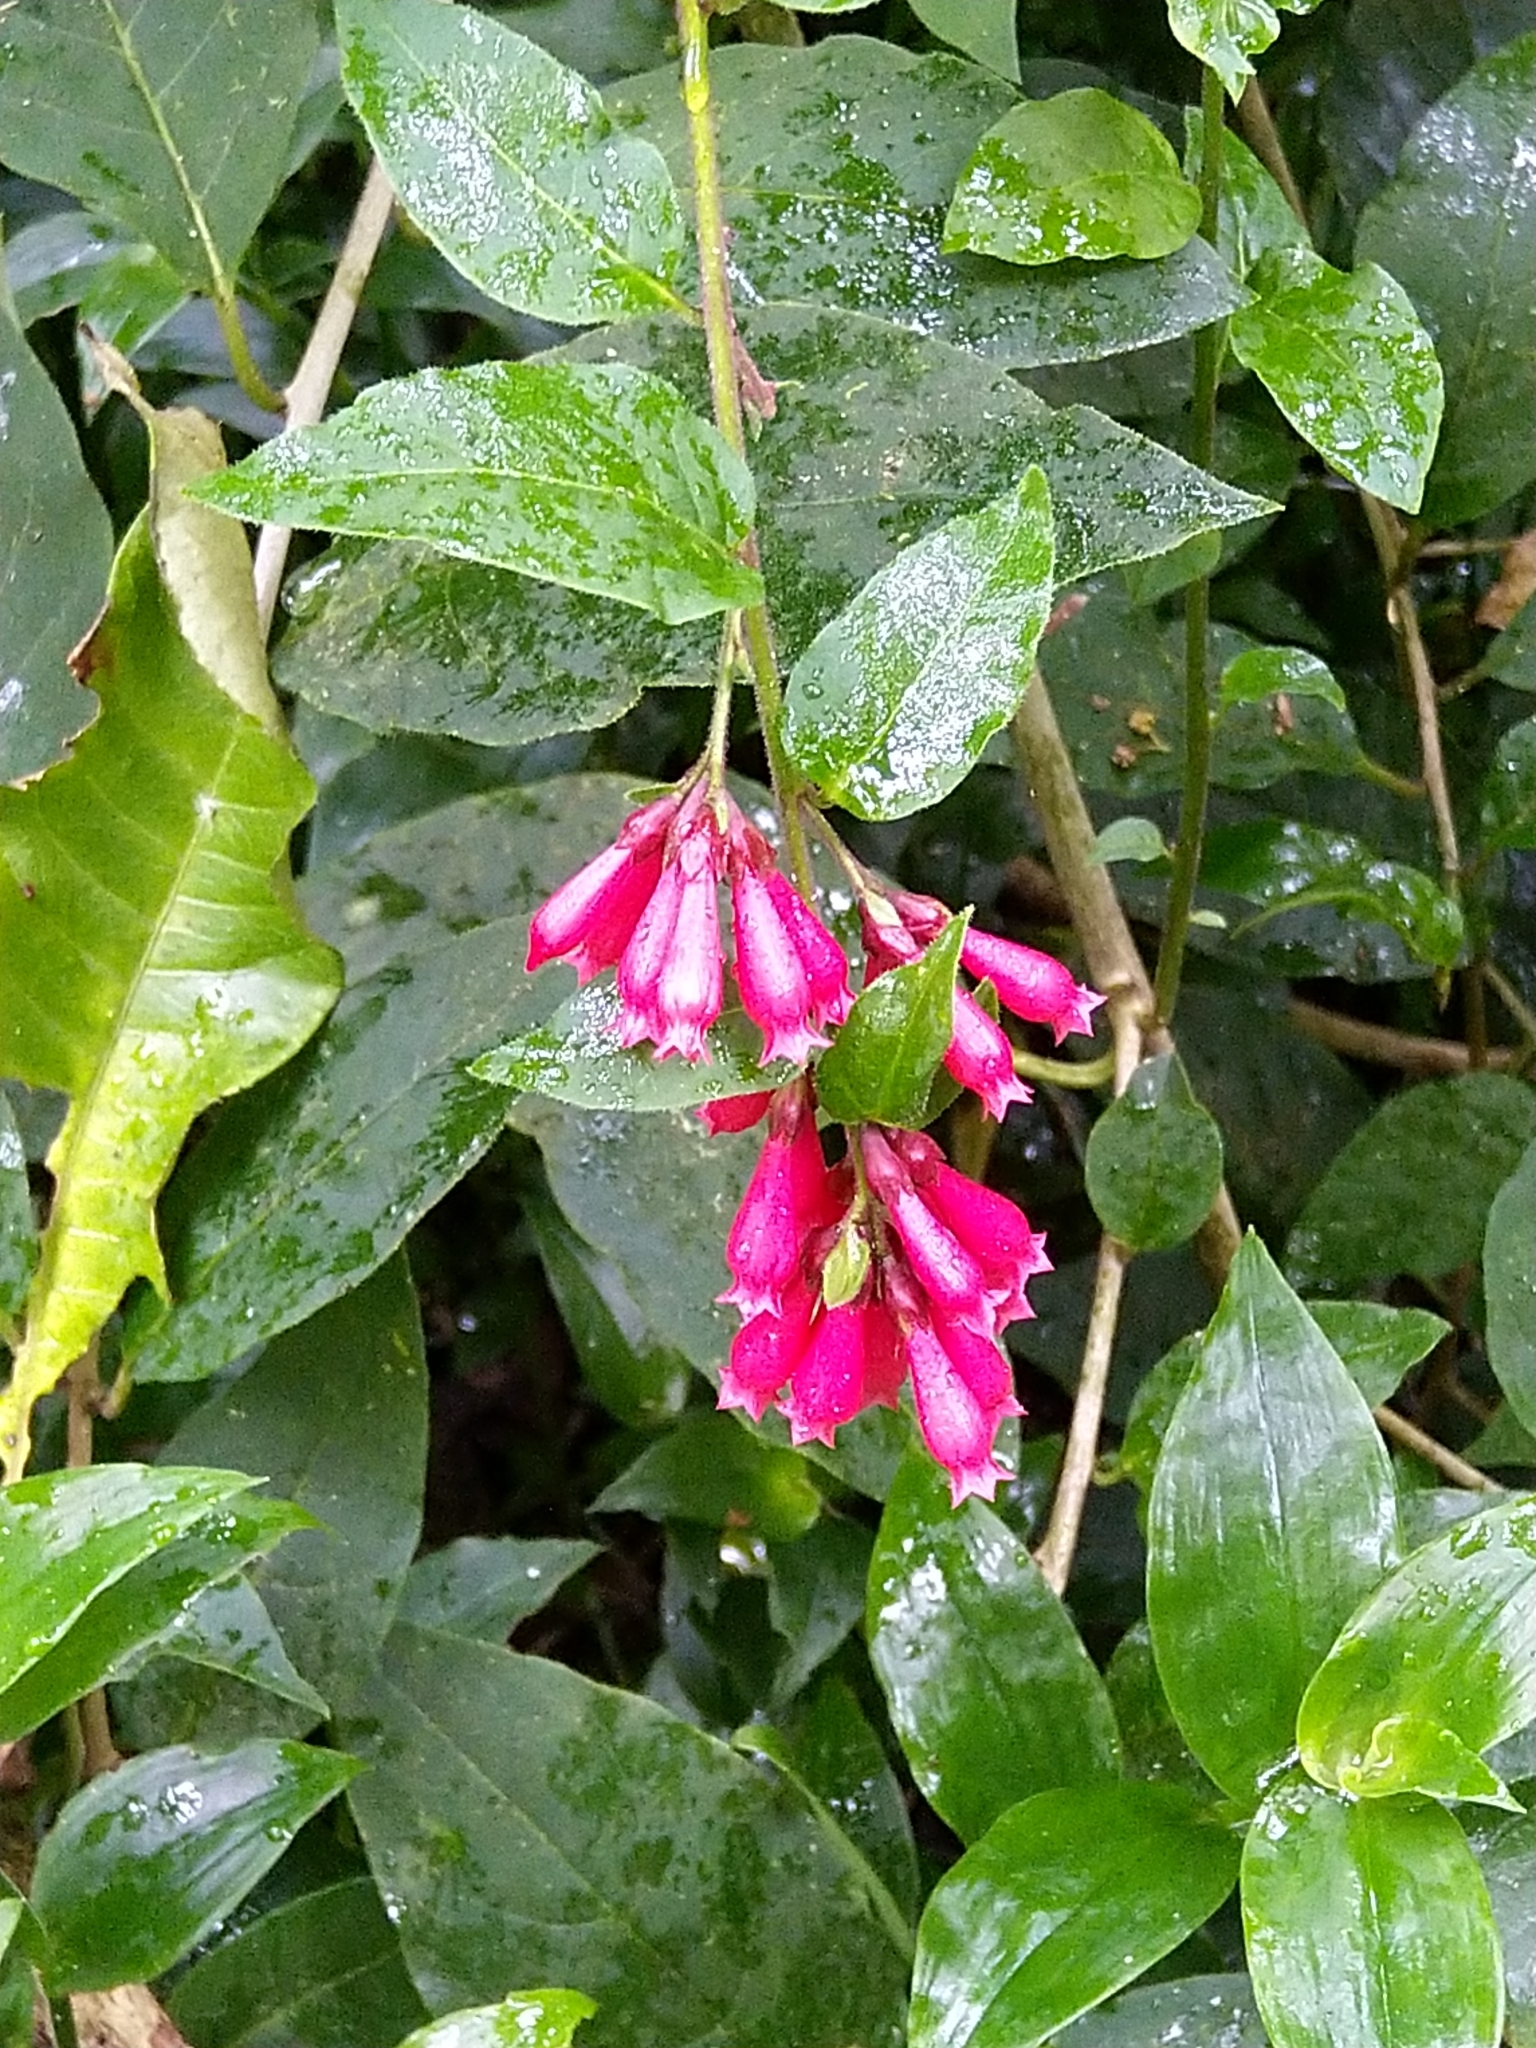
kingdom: Plantae
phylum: Tracheophyta
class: Magnoliopsida
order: Solanales
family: Solanaceae
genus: Cestrum
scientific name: Cestrum elegans
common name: Crimson cestrum
